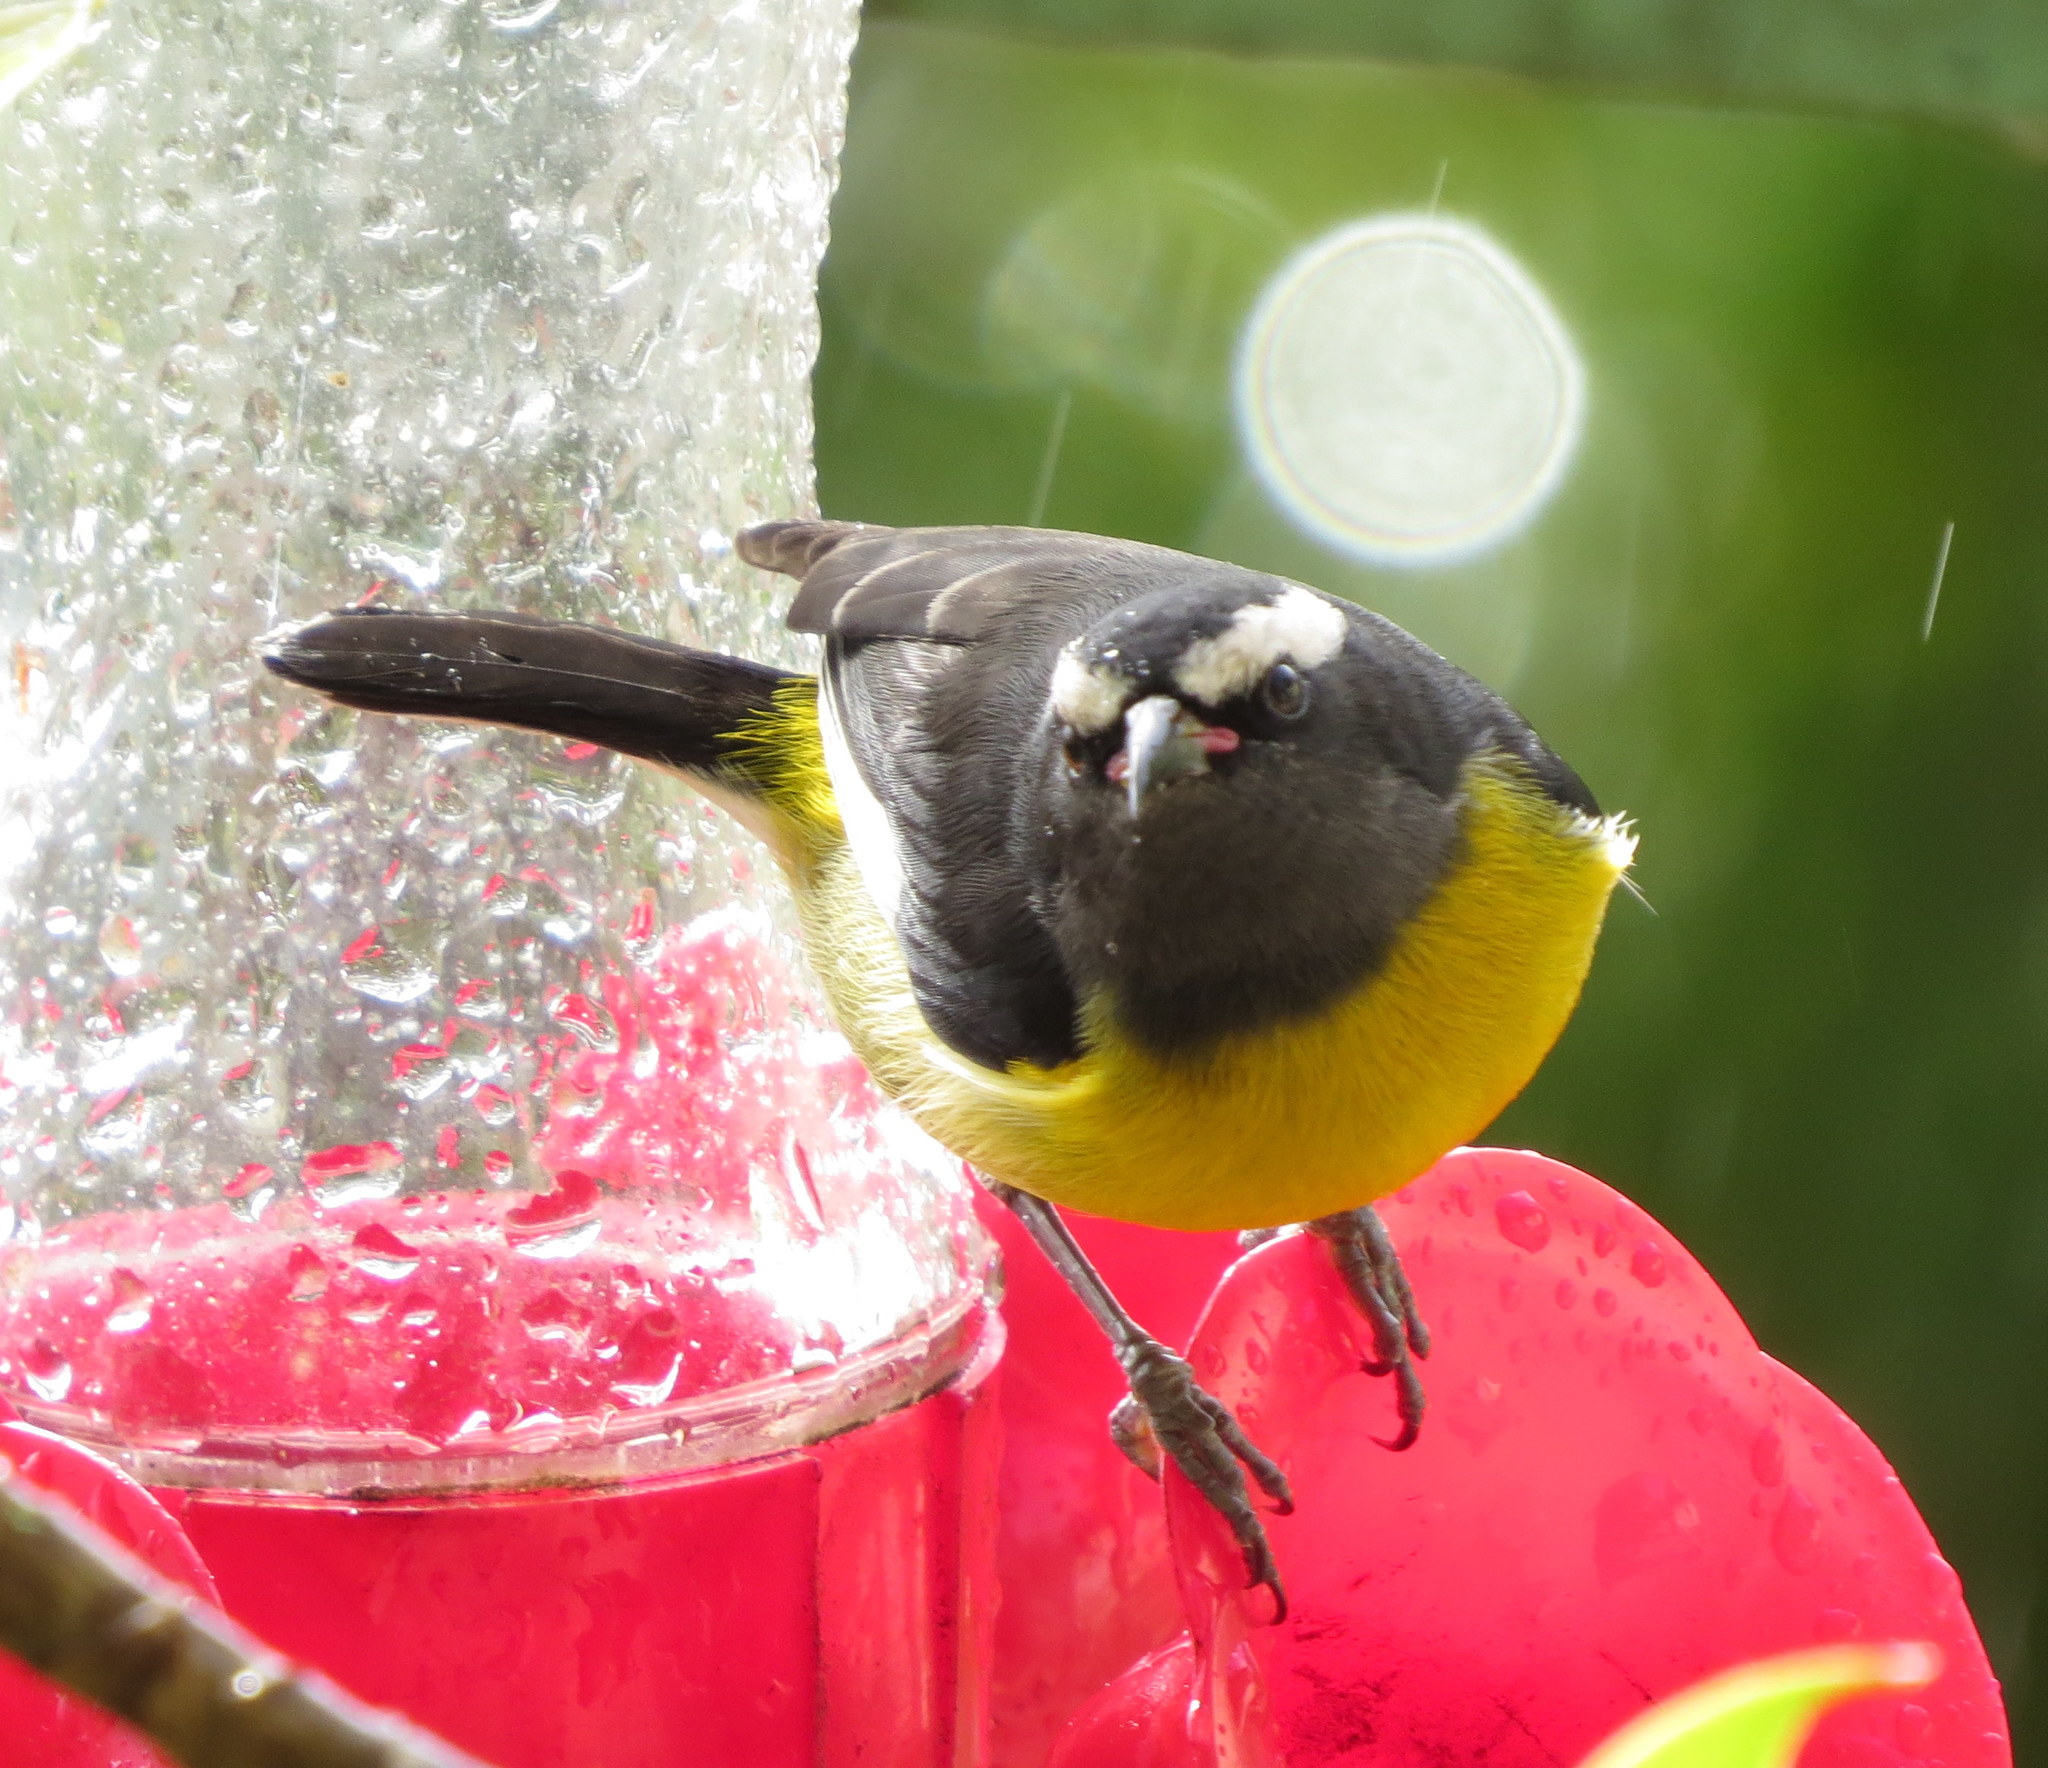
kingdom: Animalia
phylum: Chordata
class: Aves
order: Passeriformes
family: Thraupidae
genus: Coereba
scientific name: Coereba flaveola
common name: Bananaquit
